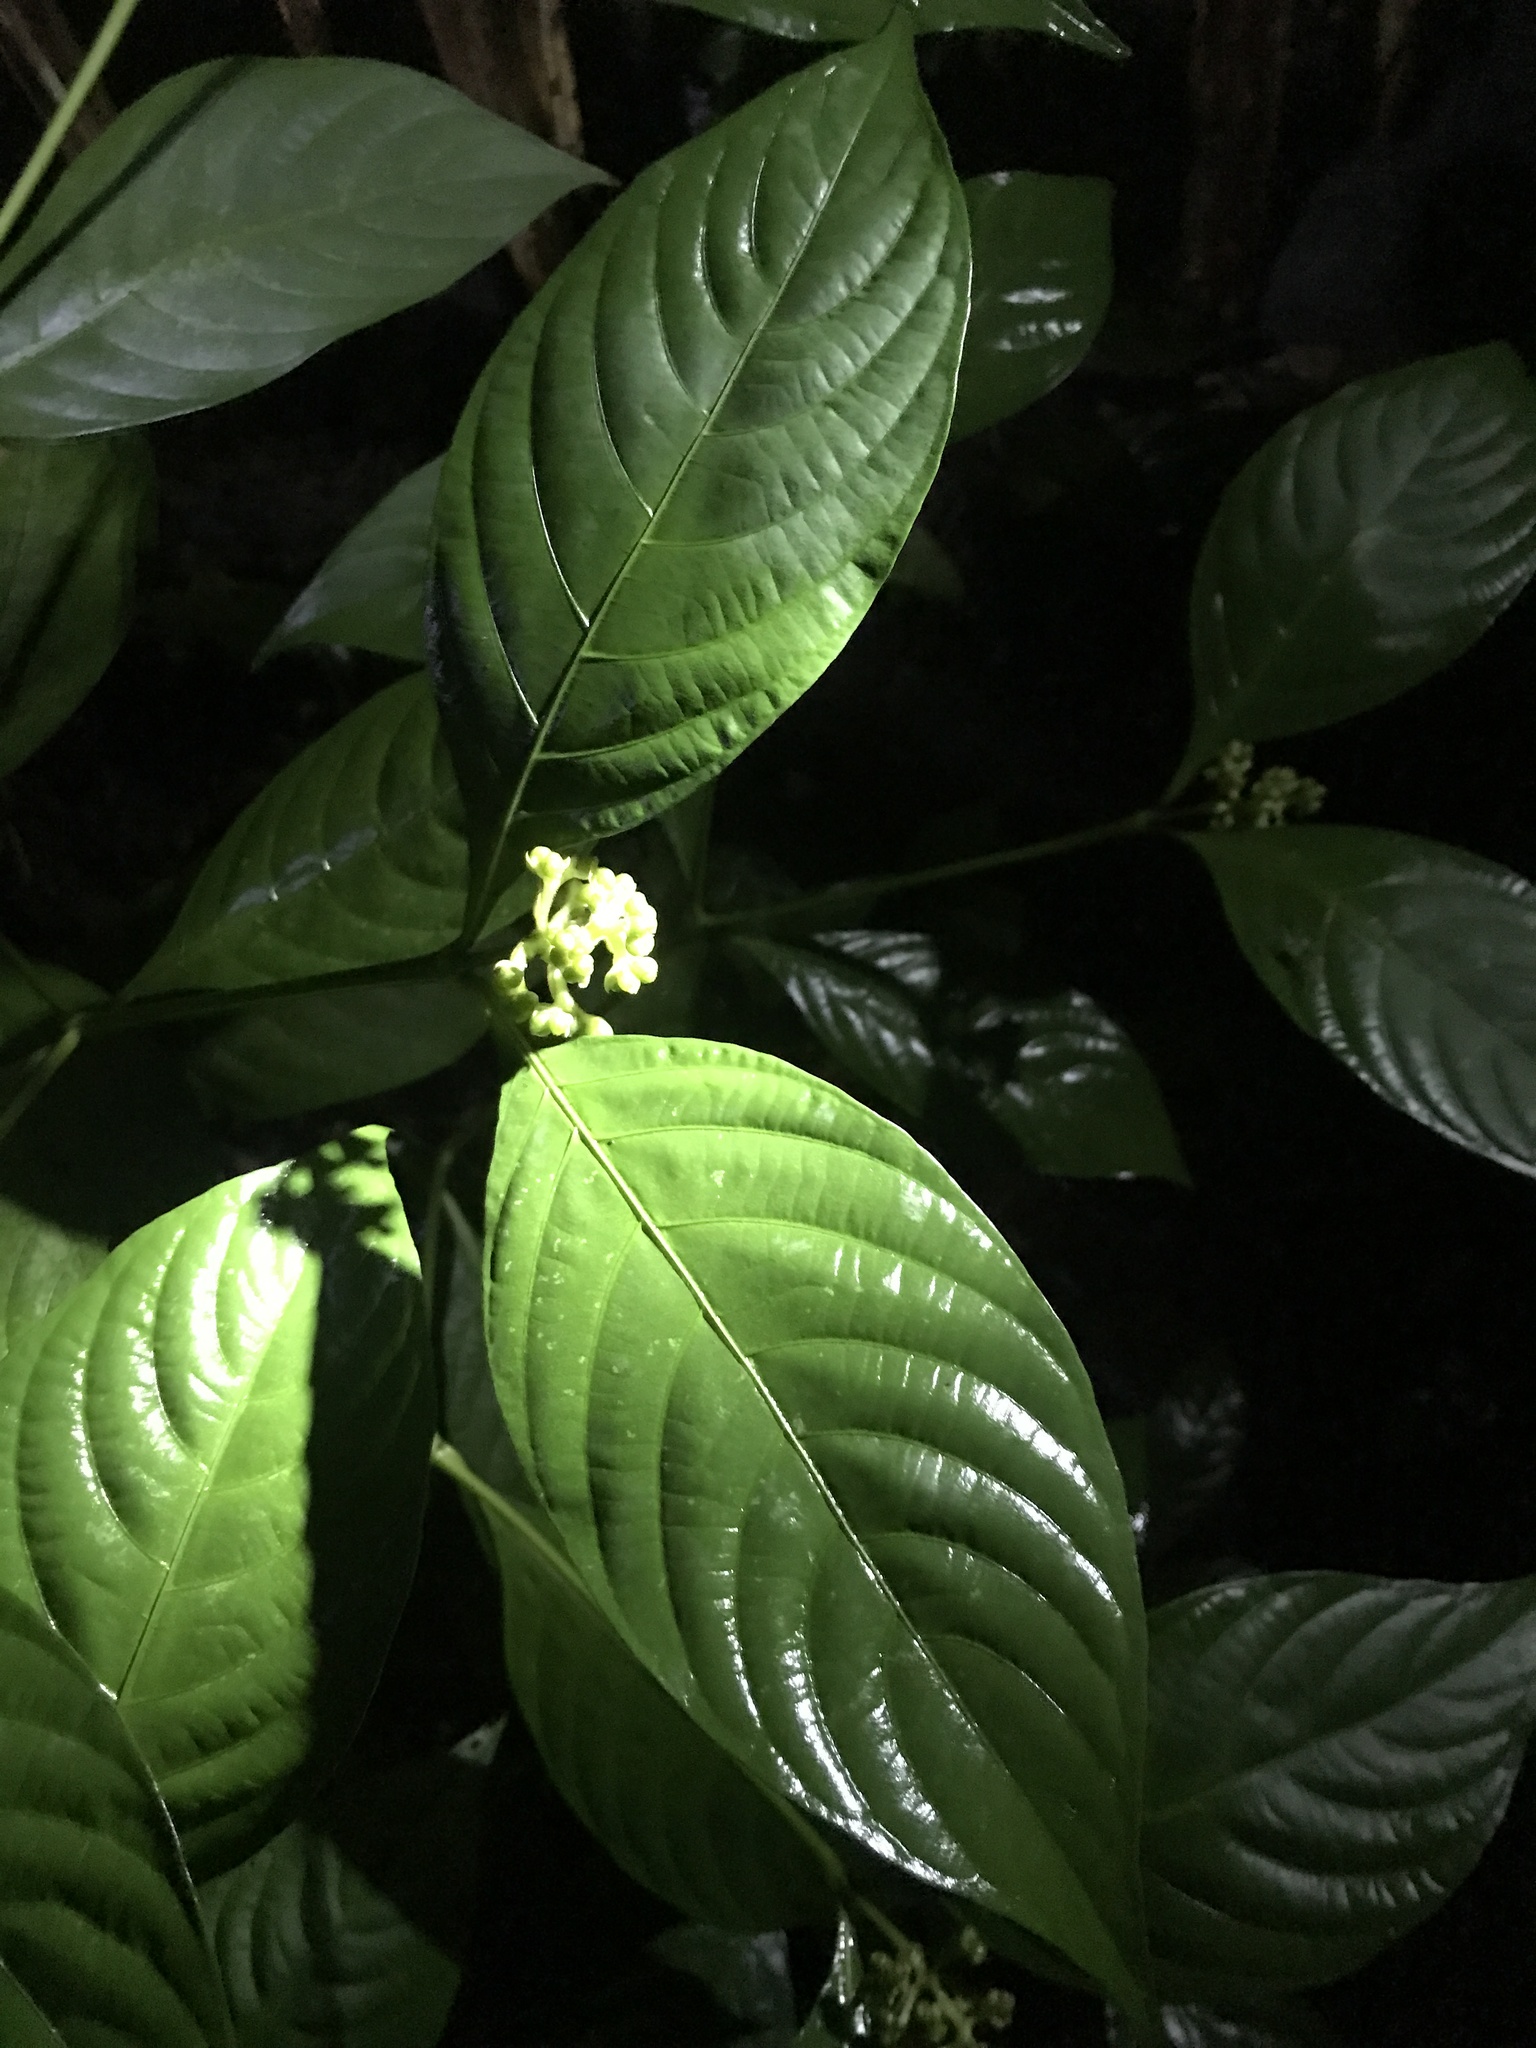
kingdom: Plantae
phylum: Tracheophyta
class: Magnoliopsida
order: Gentianales
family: Rubiaceae
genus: Palicourea
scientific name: Palicourea gracilenta
